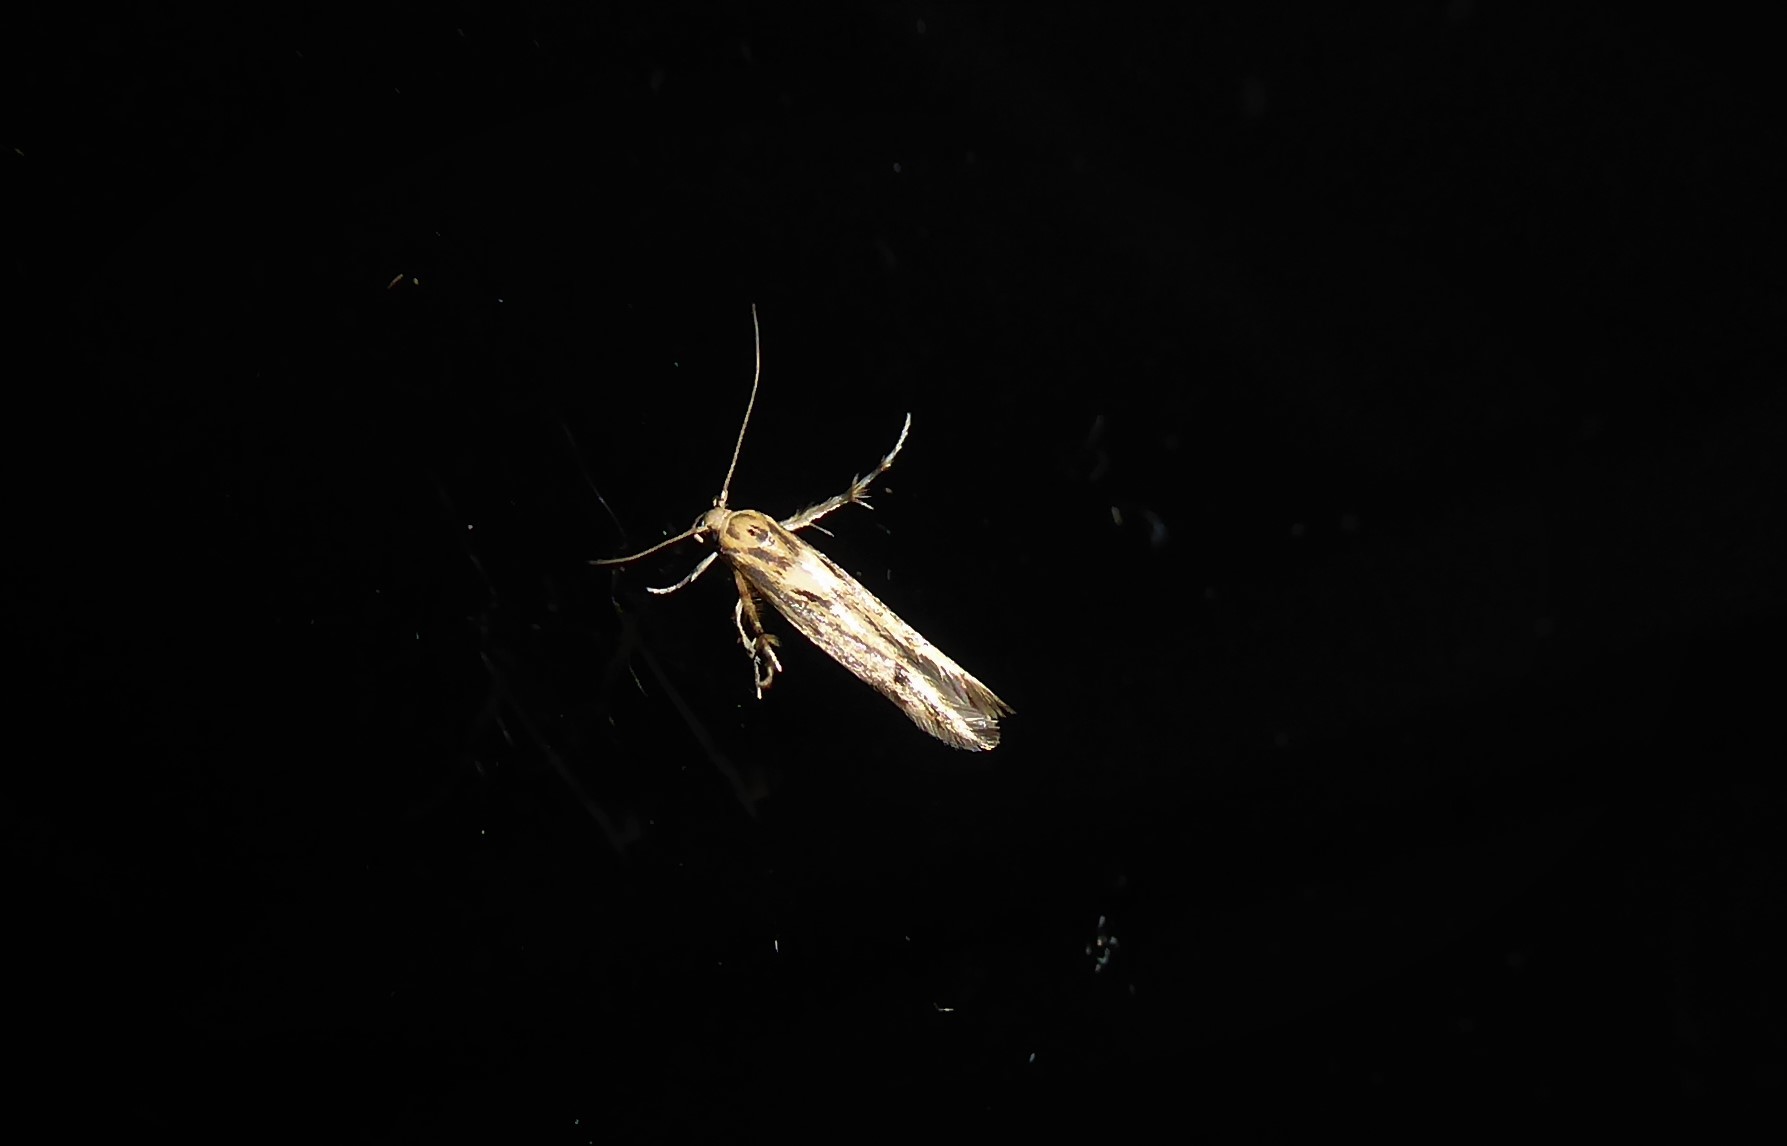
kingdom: Animalia
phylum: Arthropoda
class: Insecta
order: Lepidoptera
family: Stathmopodidae
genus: Stathmopoda
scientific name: Stathmopoda plumbiflua
